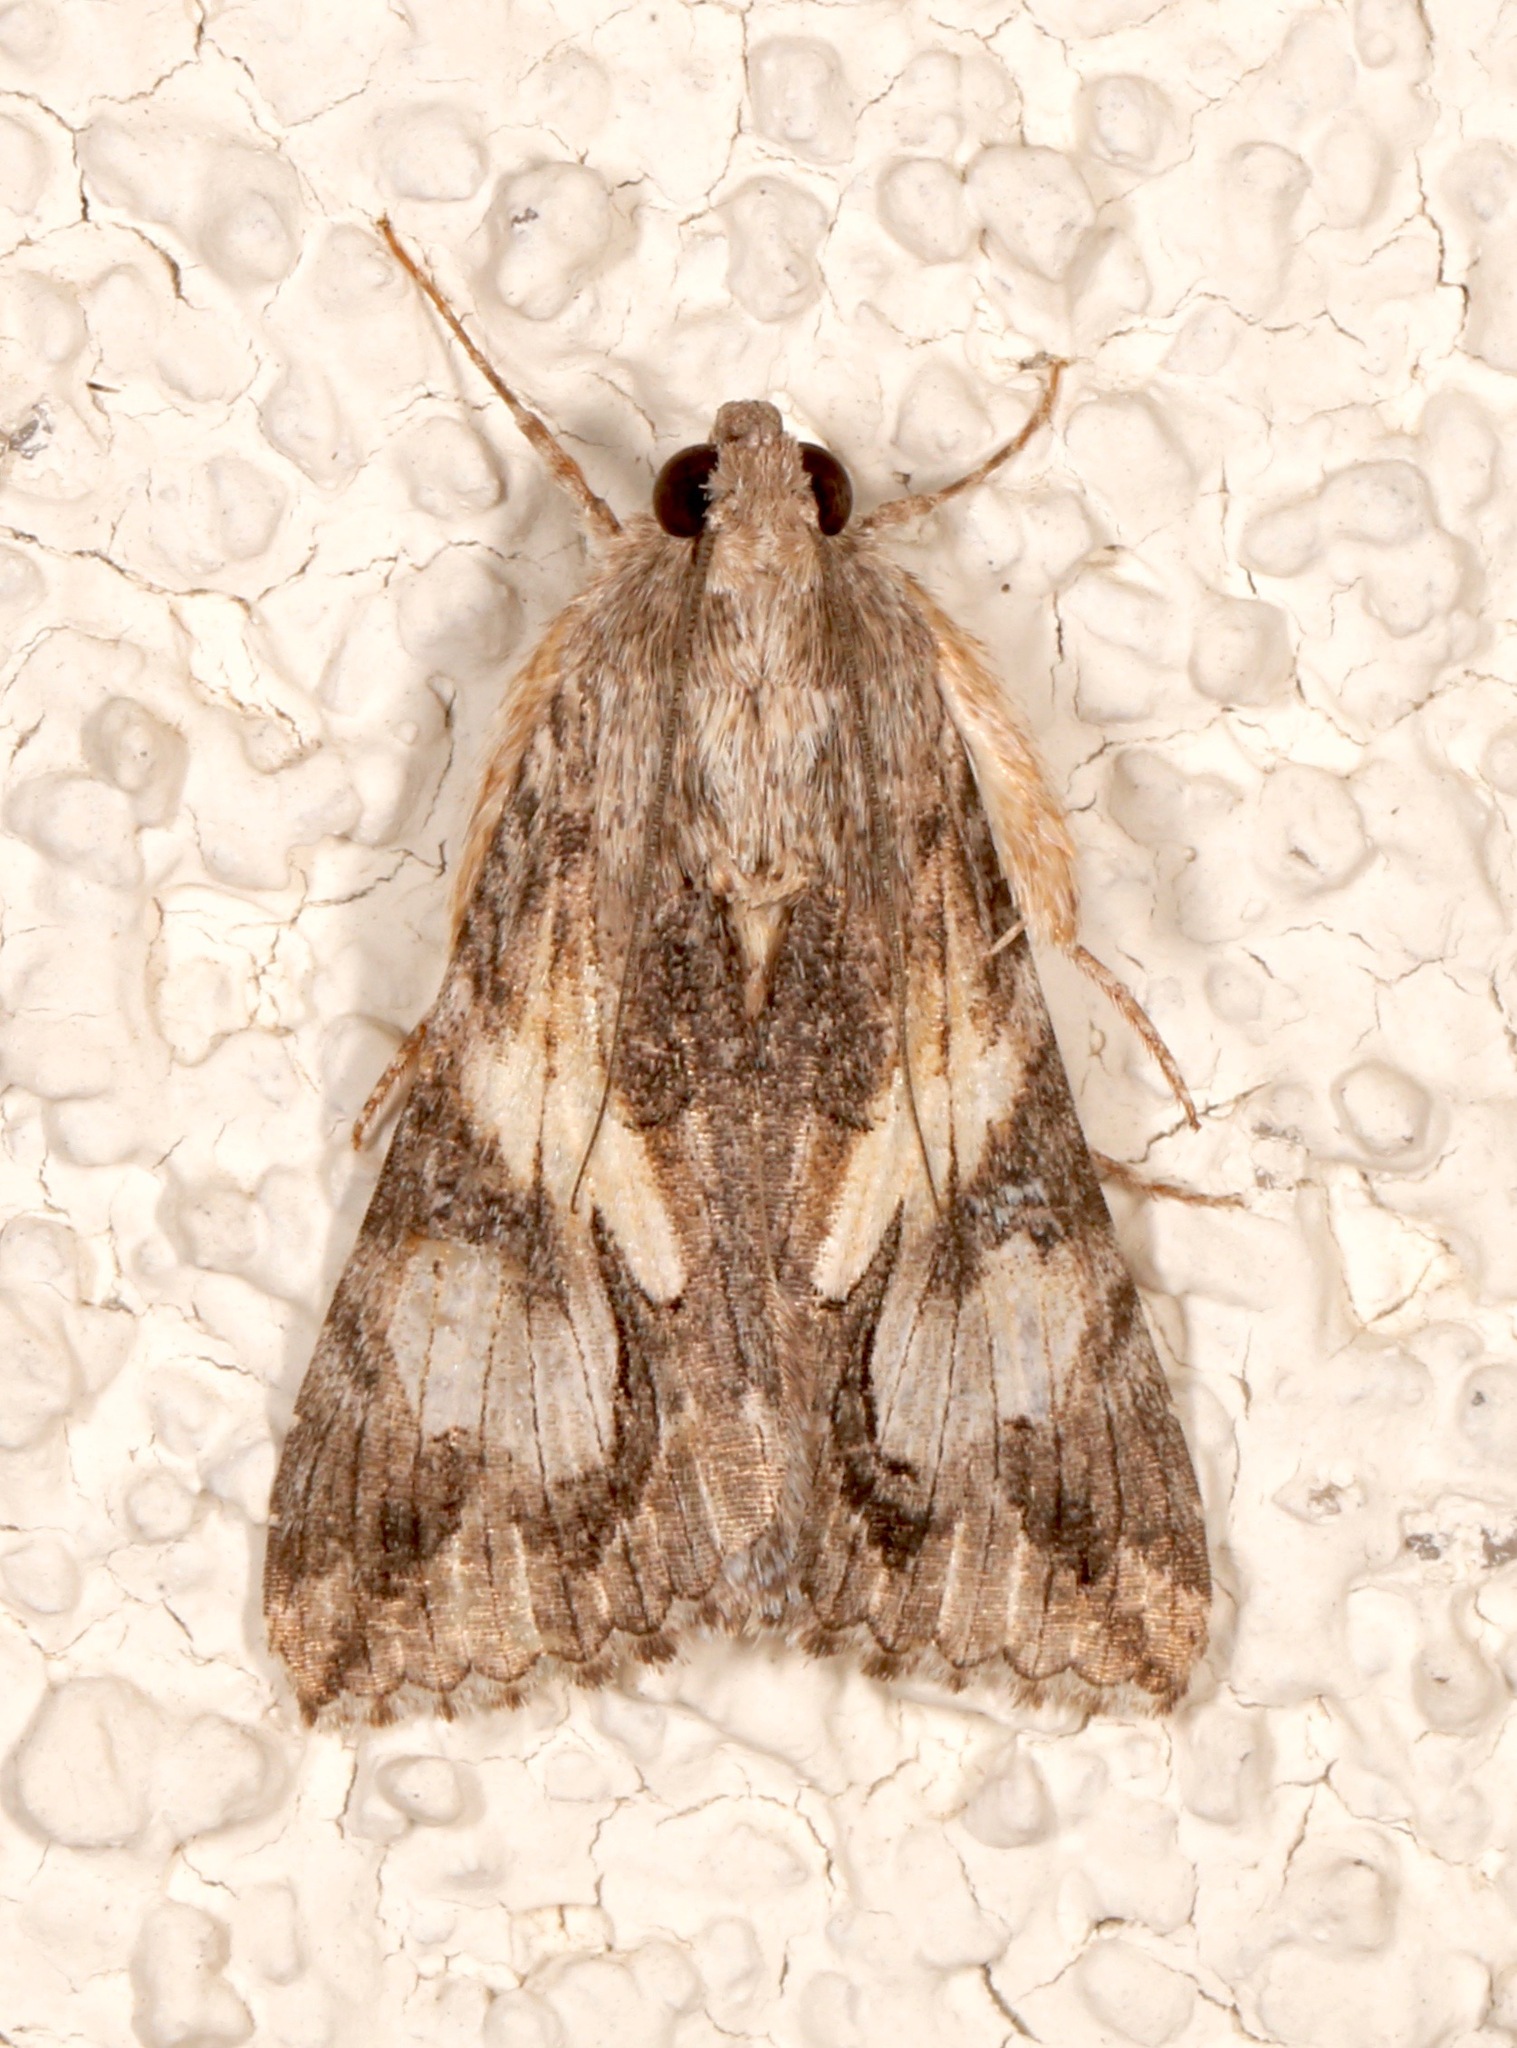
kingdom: Animalia
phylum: Arthropoda
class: Insecta
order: Lepidoptera
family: Erebidae
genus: Melipotis
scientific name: Melipotis jucunda
